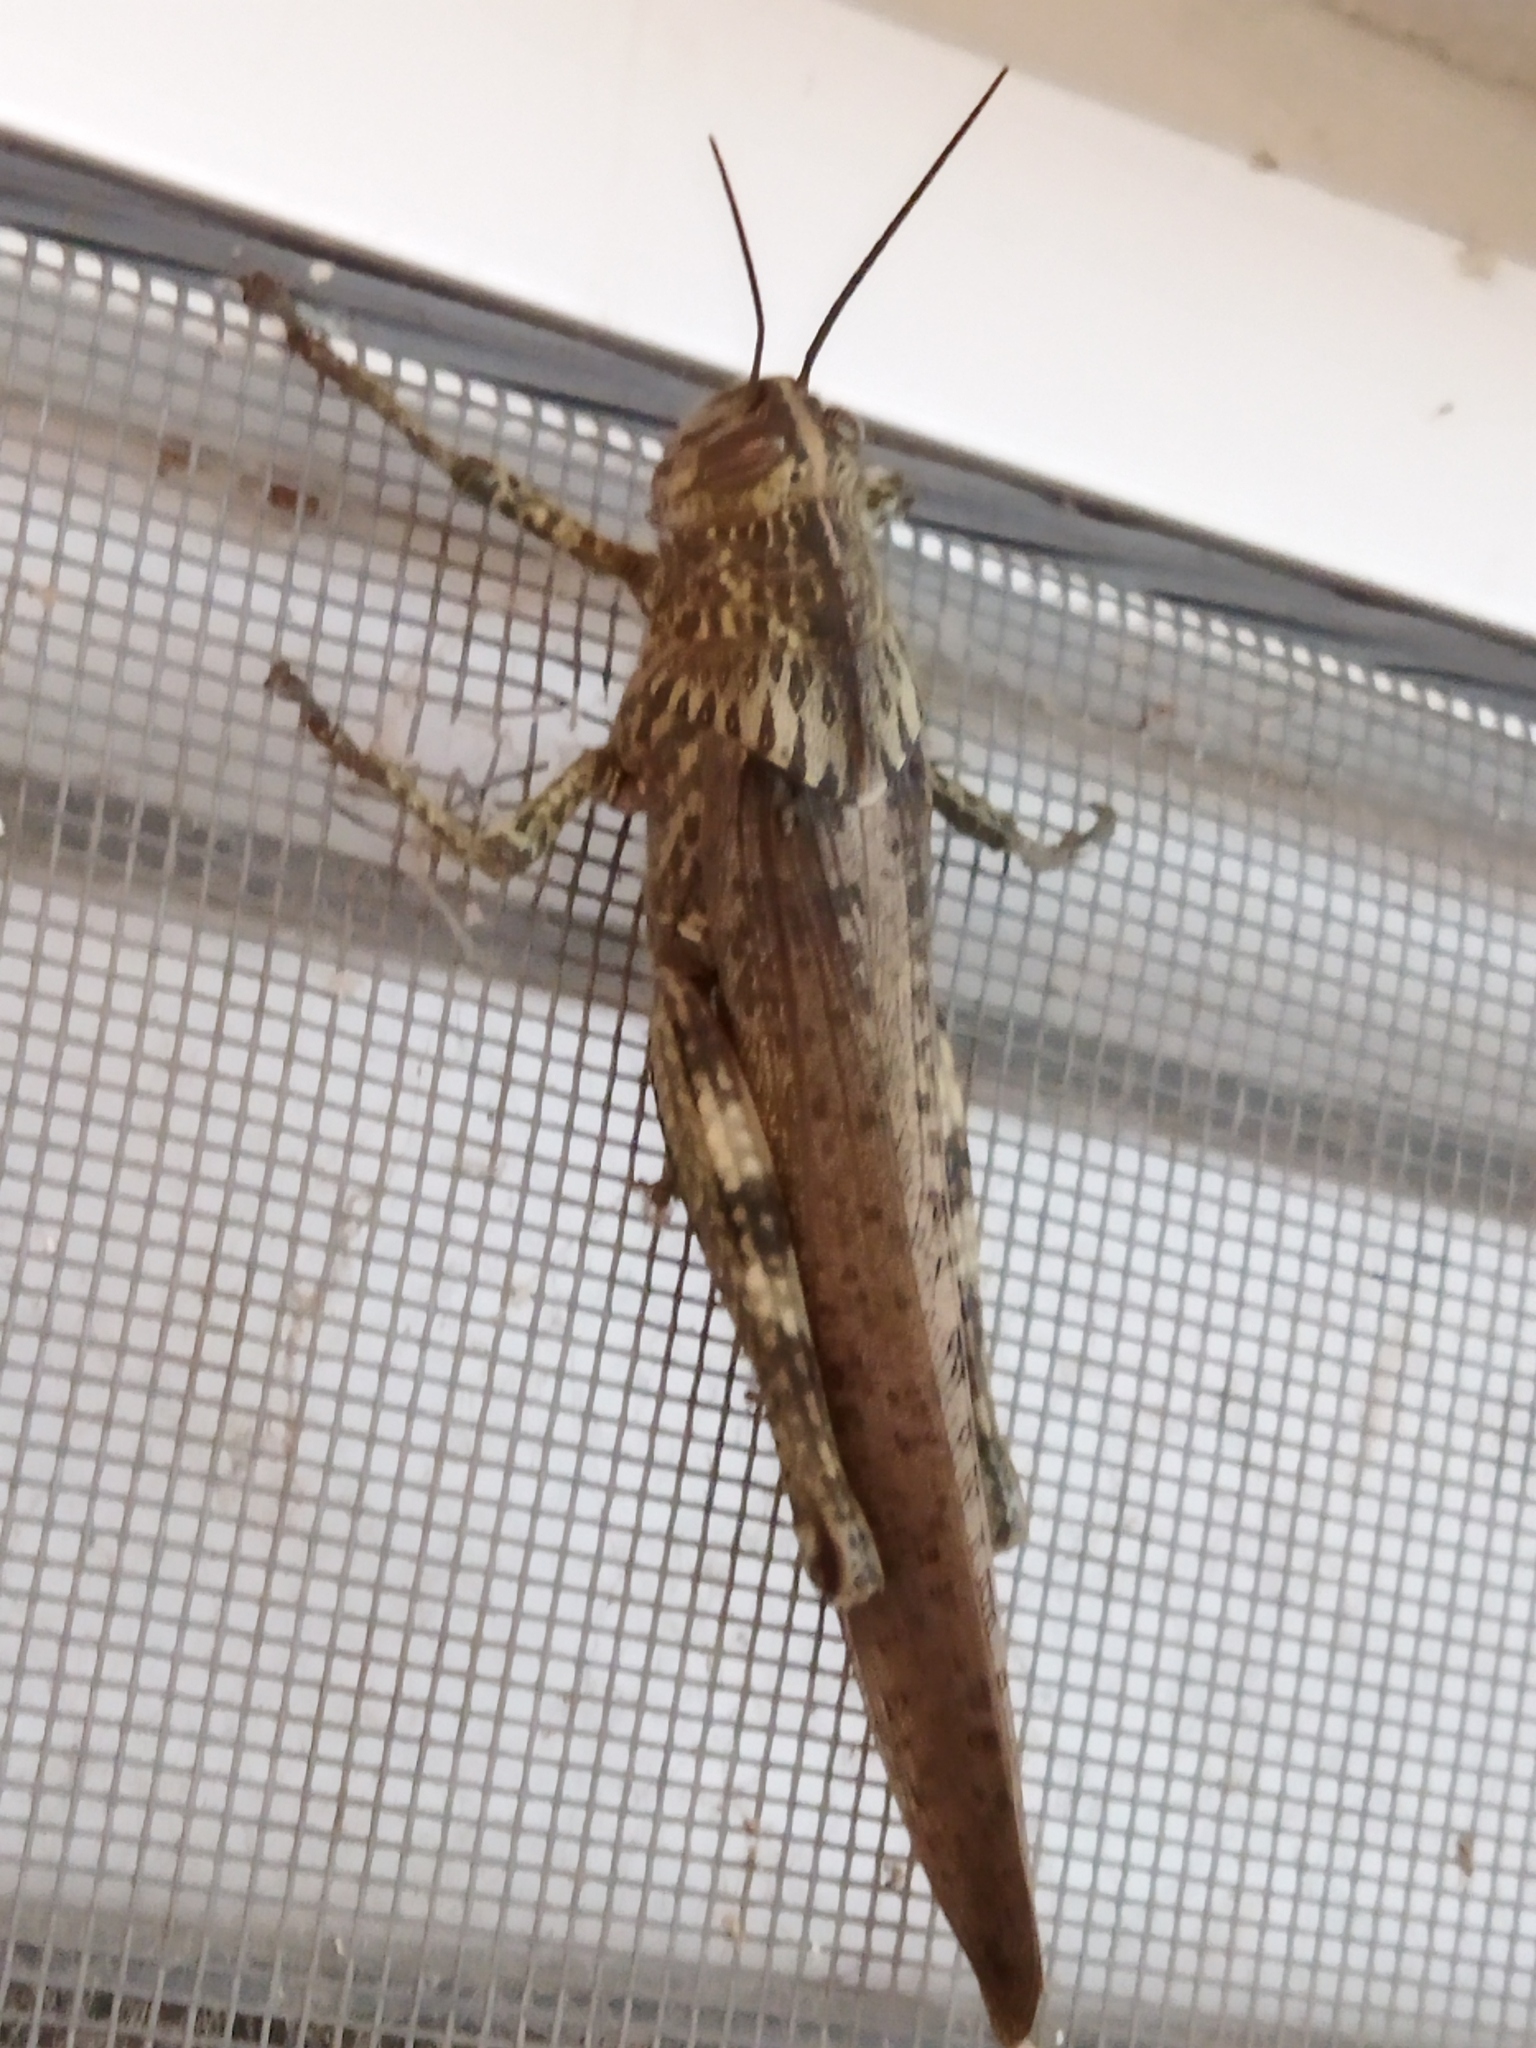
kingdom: Animalia
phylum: Arthropoda
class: Insecta
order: Orthoptera
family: Acrididae
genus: Anacridium
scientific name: Anacridium aegyptium
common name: Egyptian grasshopper
